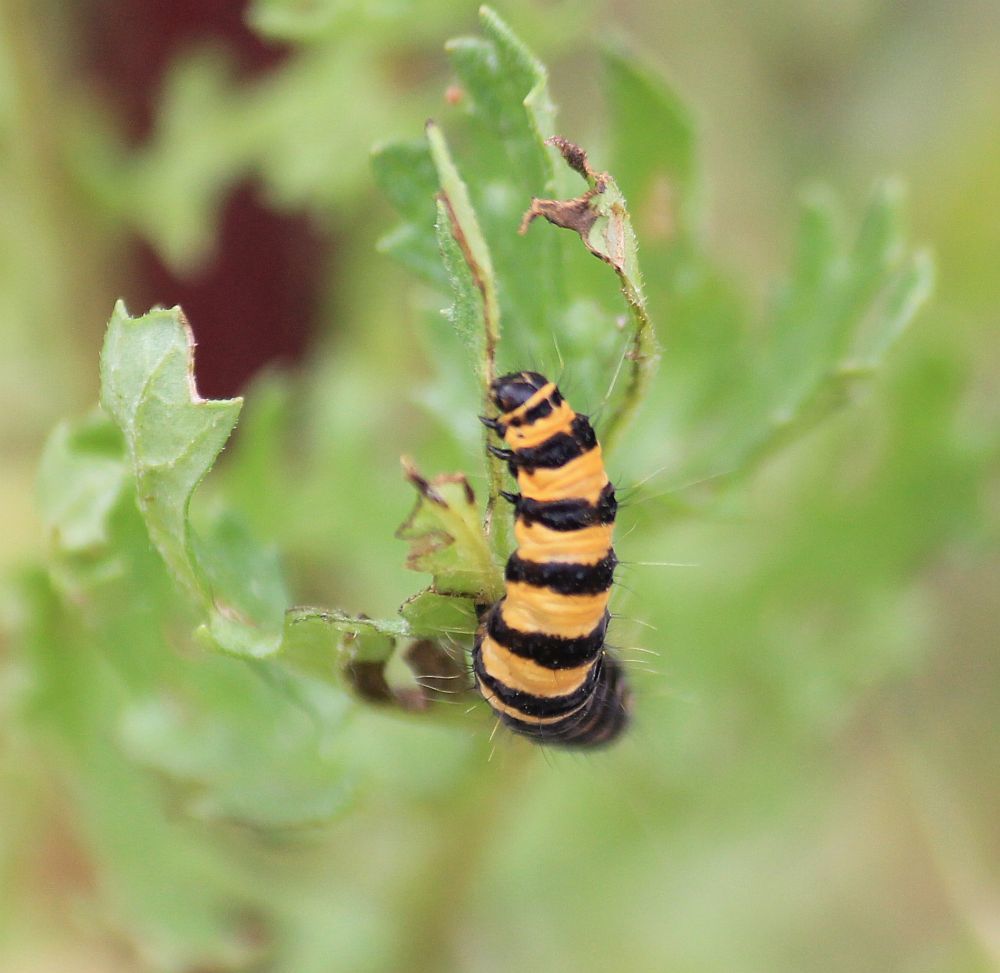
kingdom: Animalia
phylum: Arthropoda
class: Insecta
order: Lepidoptera
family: Erebidae
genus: Tyria
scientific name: Tyria jacobaeae
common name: Cinnabar
